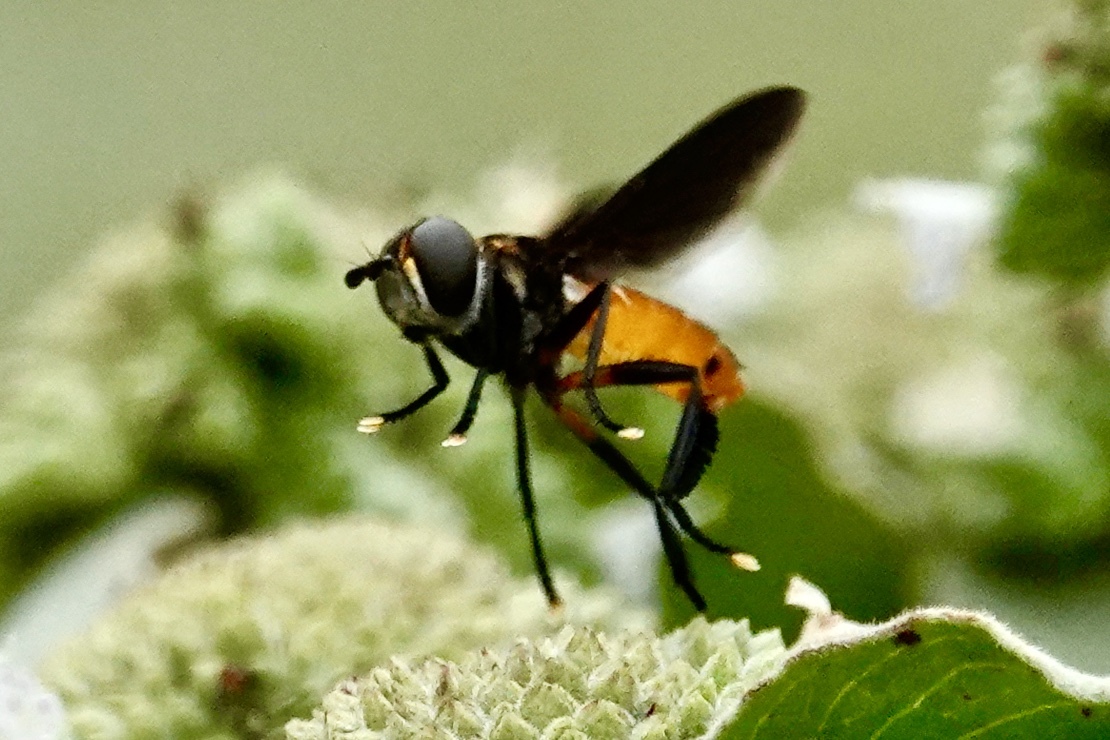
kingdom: Animalia
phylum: Arthropoda
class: Insecta
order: Diptera
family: Tachinidae
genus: Trichopoda
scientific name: Trichopoda pennipes
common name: Tachinid fly
